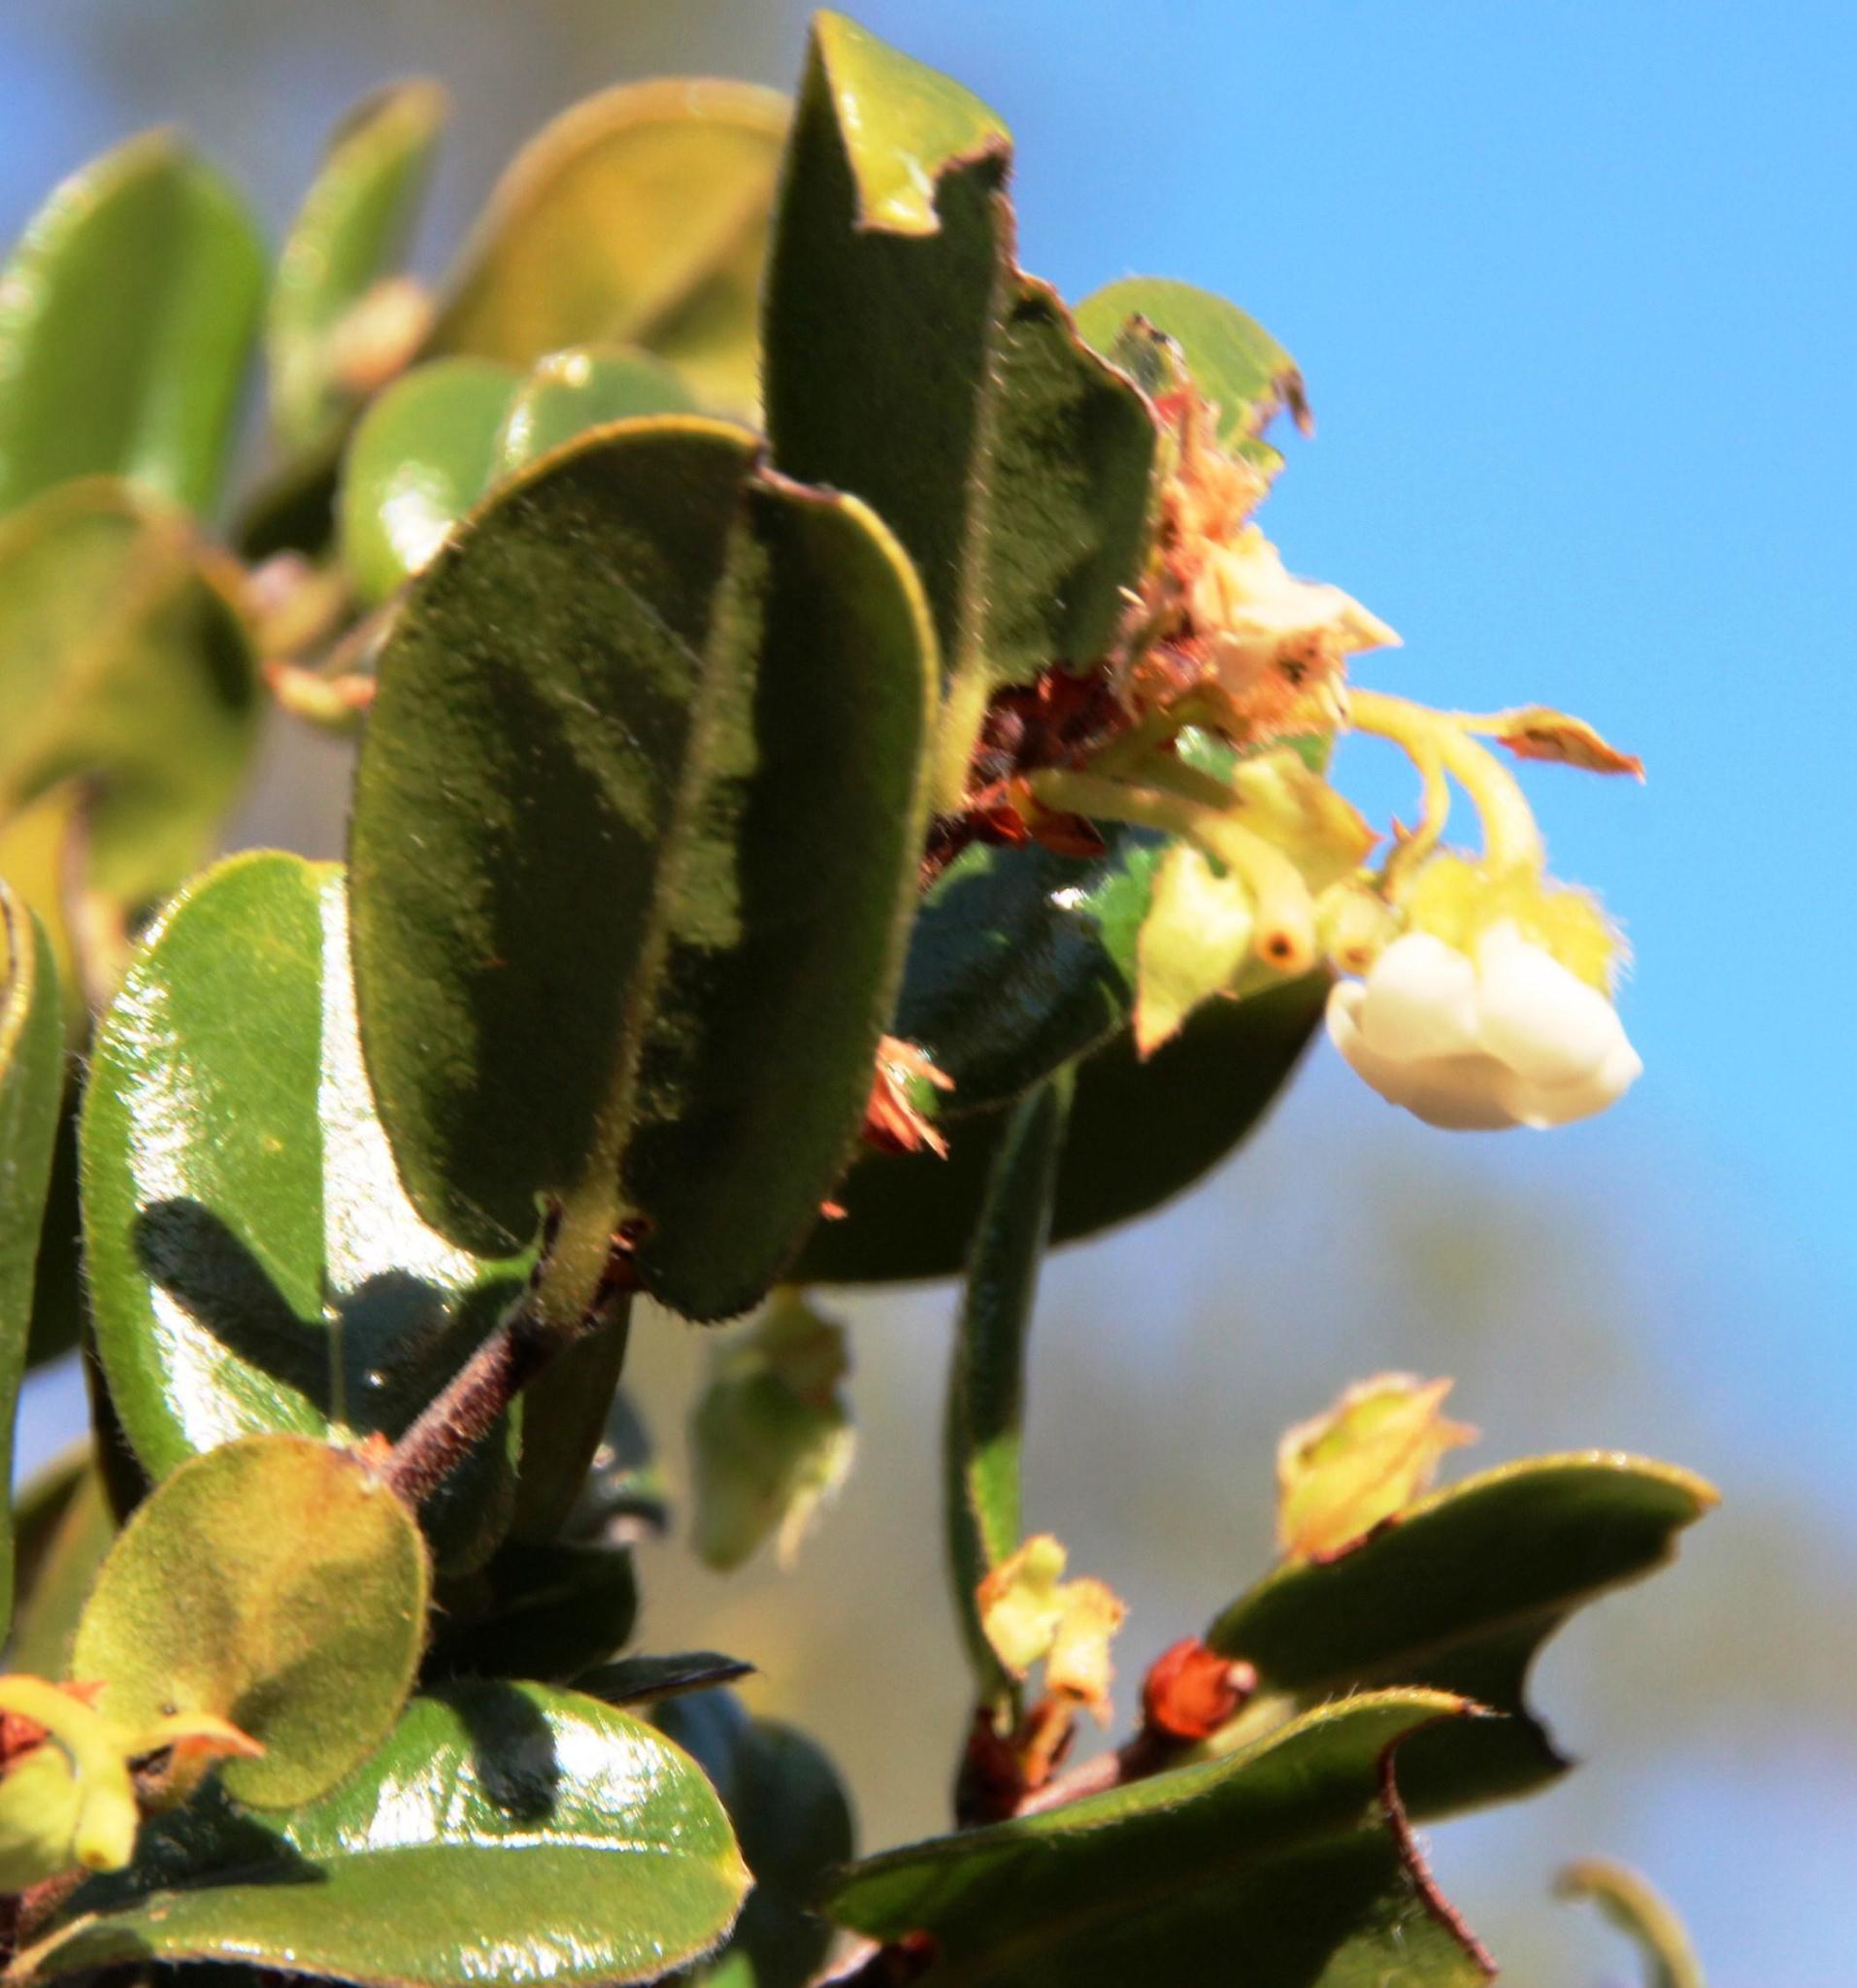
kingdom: Plantae
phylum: Tracheophyta
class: Magnoliopsida
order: Ericales
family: Ebenaceae
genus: Diospyros
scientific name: Diospyros scabrida
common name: Coastal bladder-nut
